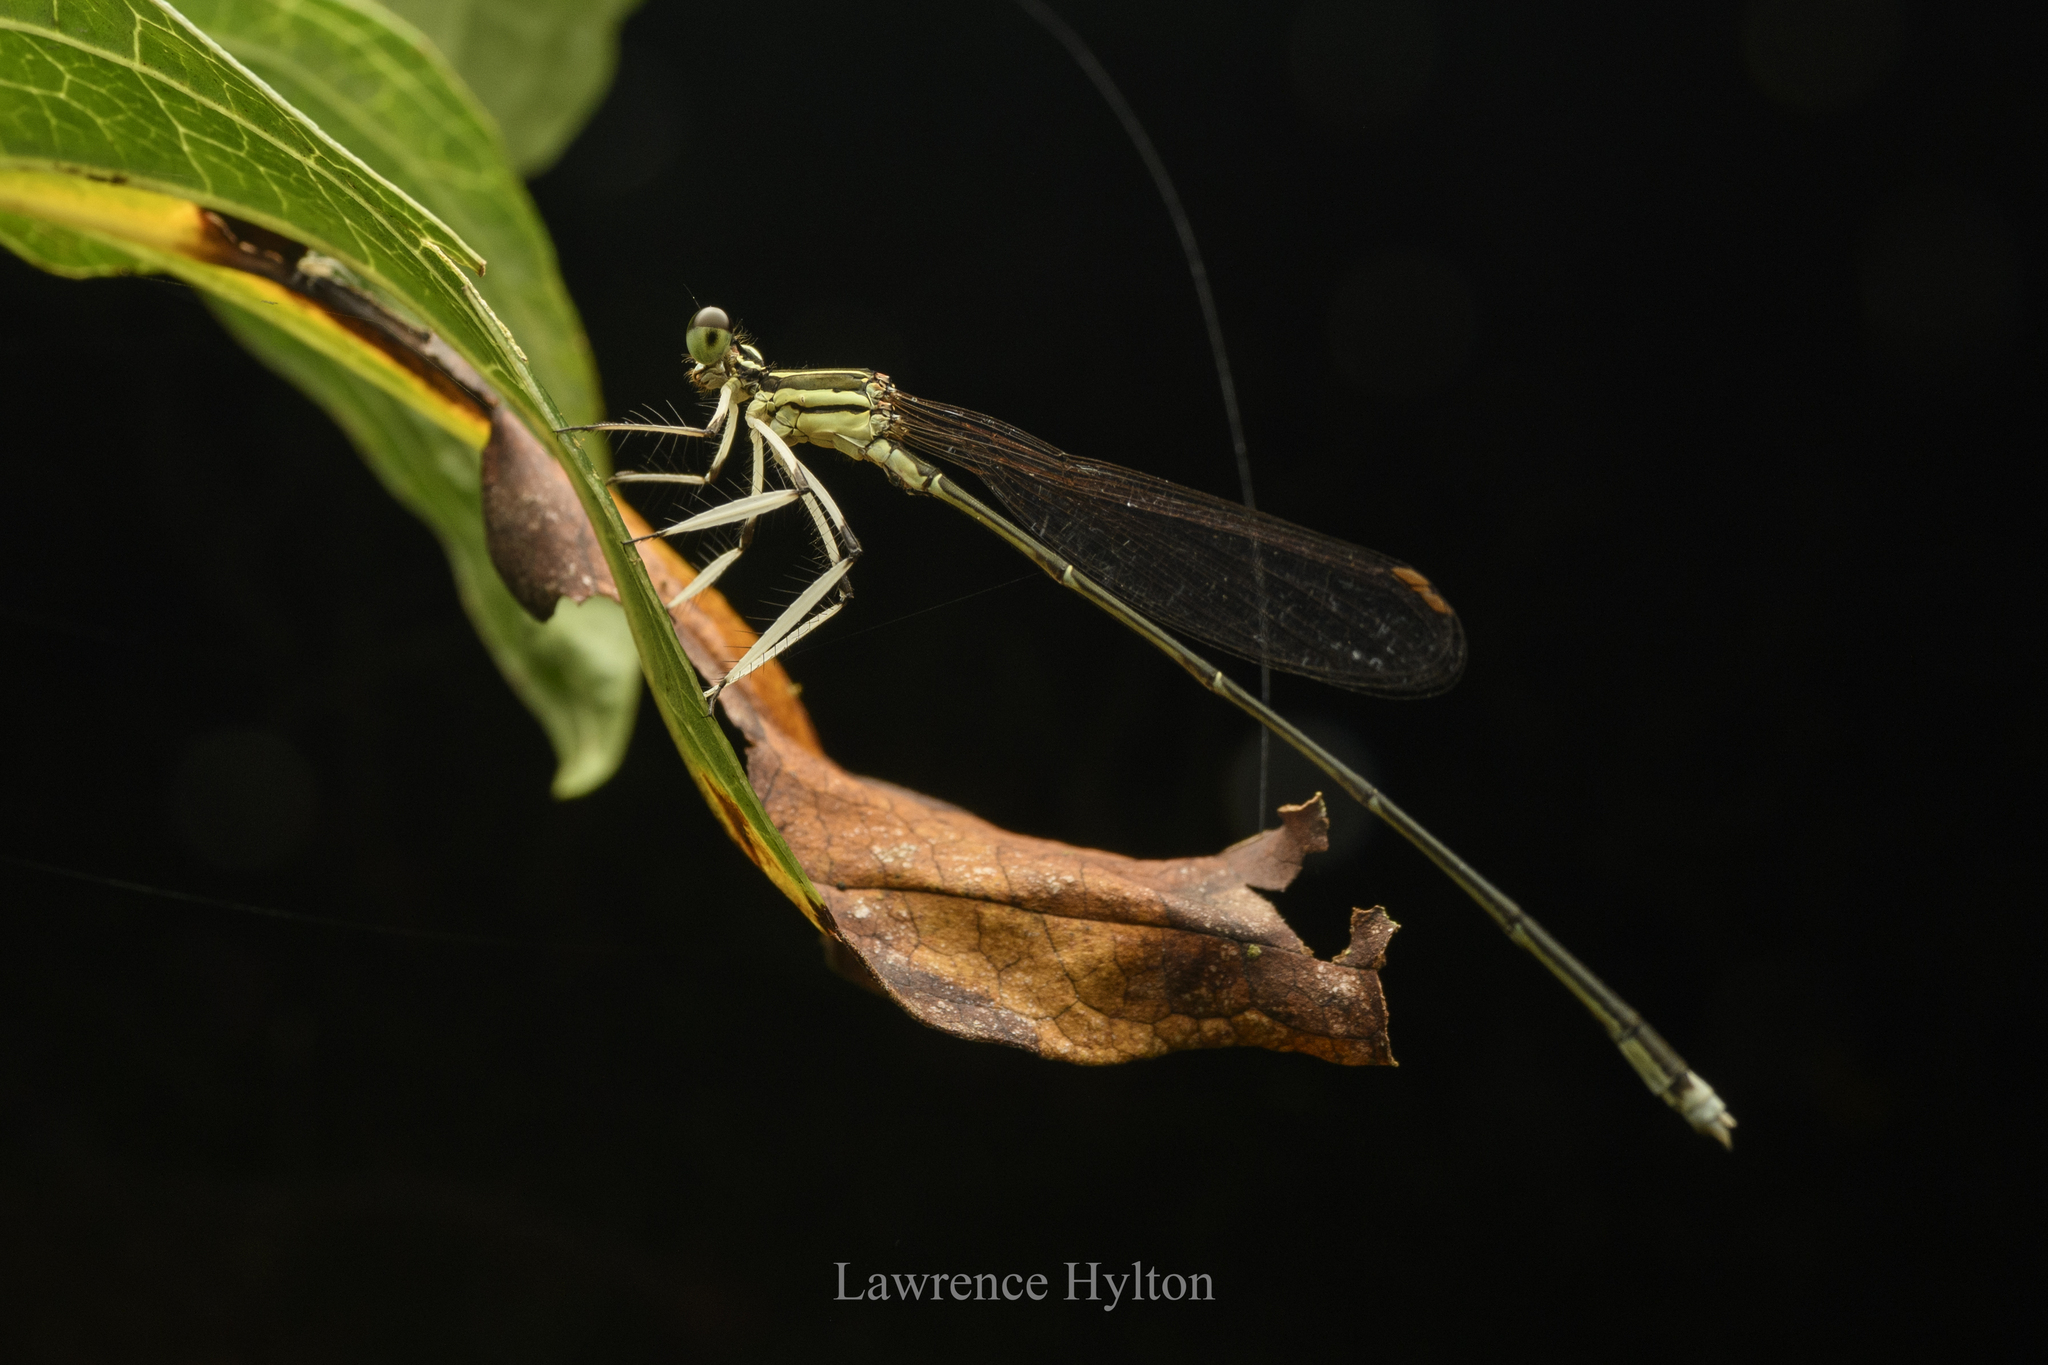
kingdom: Animalia
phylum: Arthropoda
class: Insecta
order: Odonata
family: Platycnemididae
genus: Pseudocopera
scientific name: Pseudocopera ciliata
